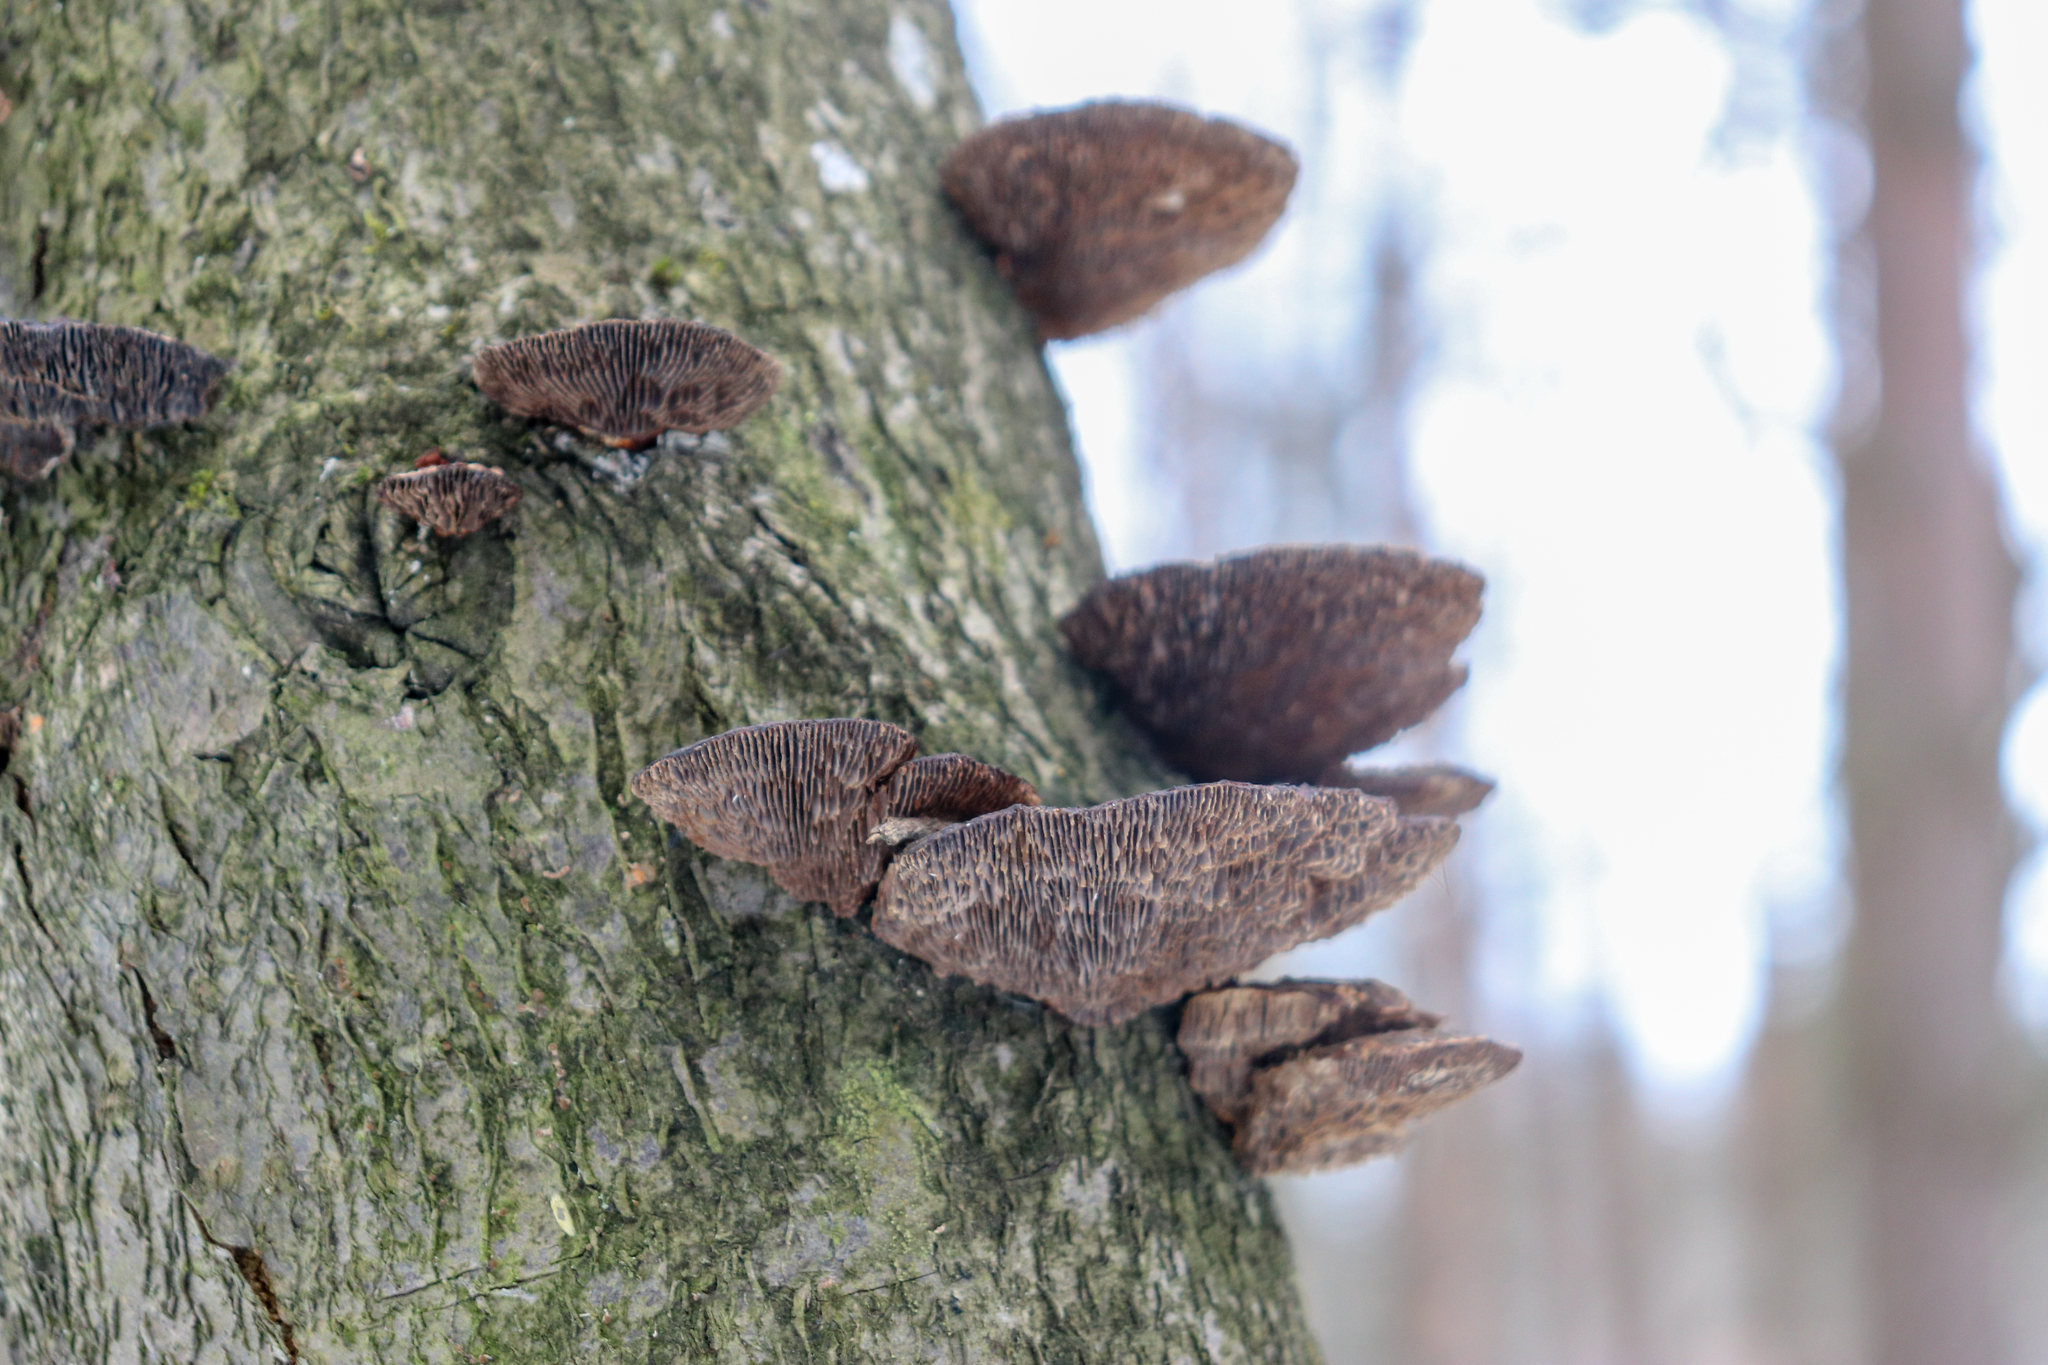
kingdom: Fungi
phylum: Basidiomycota
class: Agaricomycetes
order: Polyporales
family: Polyporaceae
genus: Daedaleopsis
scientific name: Daedaleopsis tricolor
